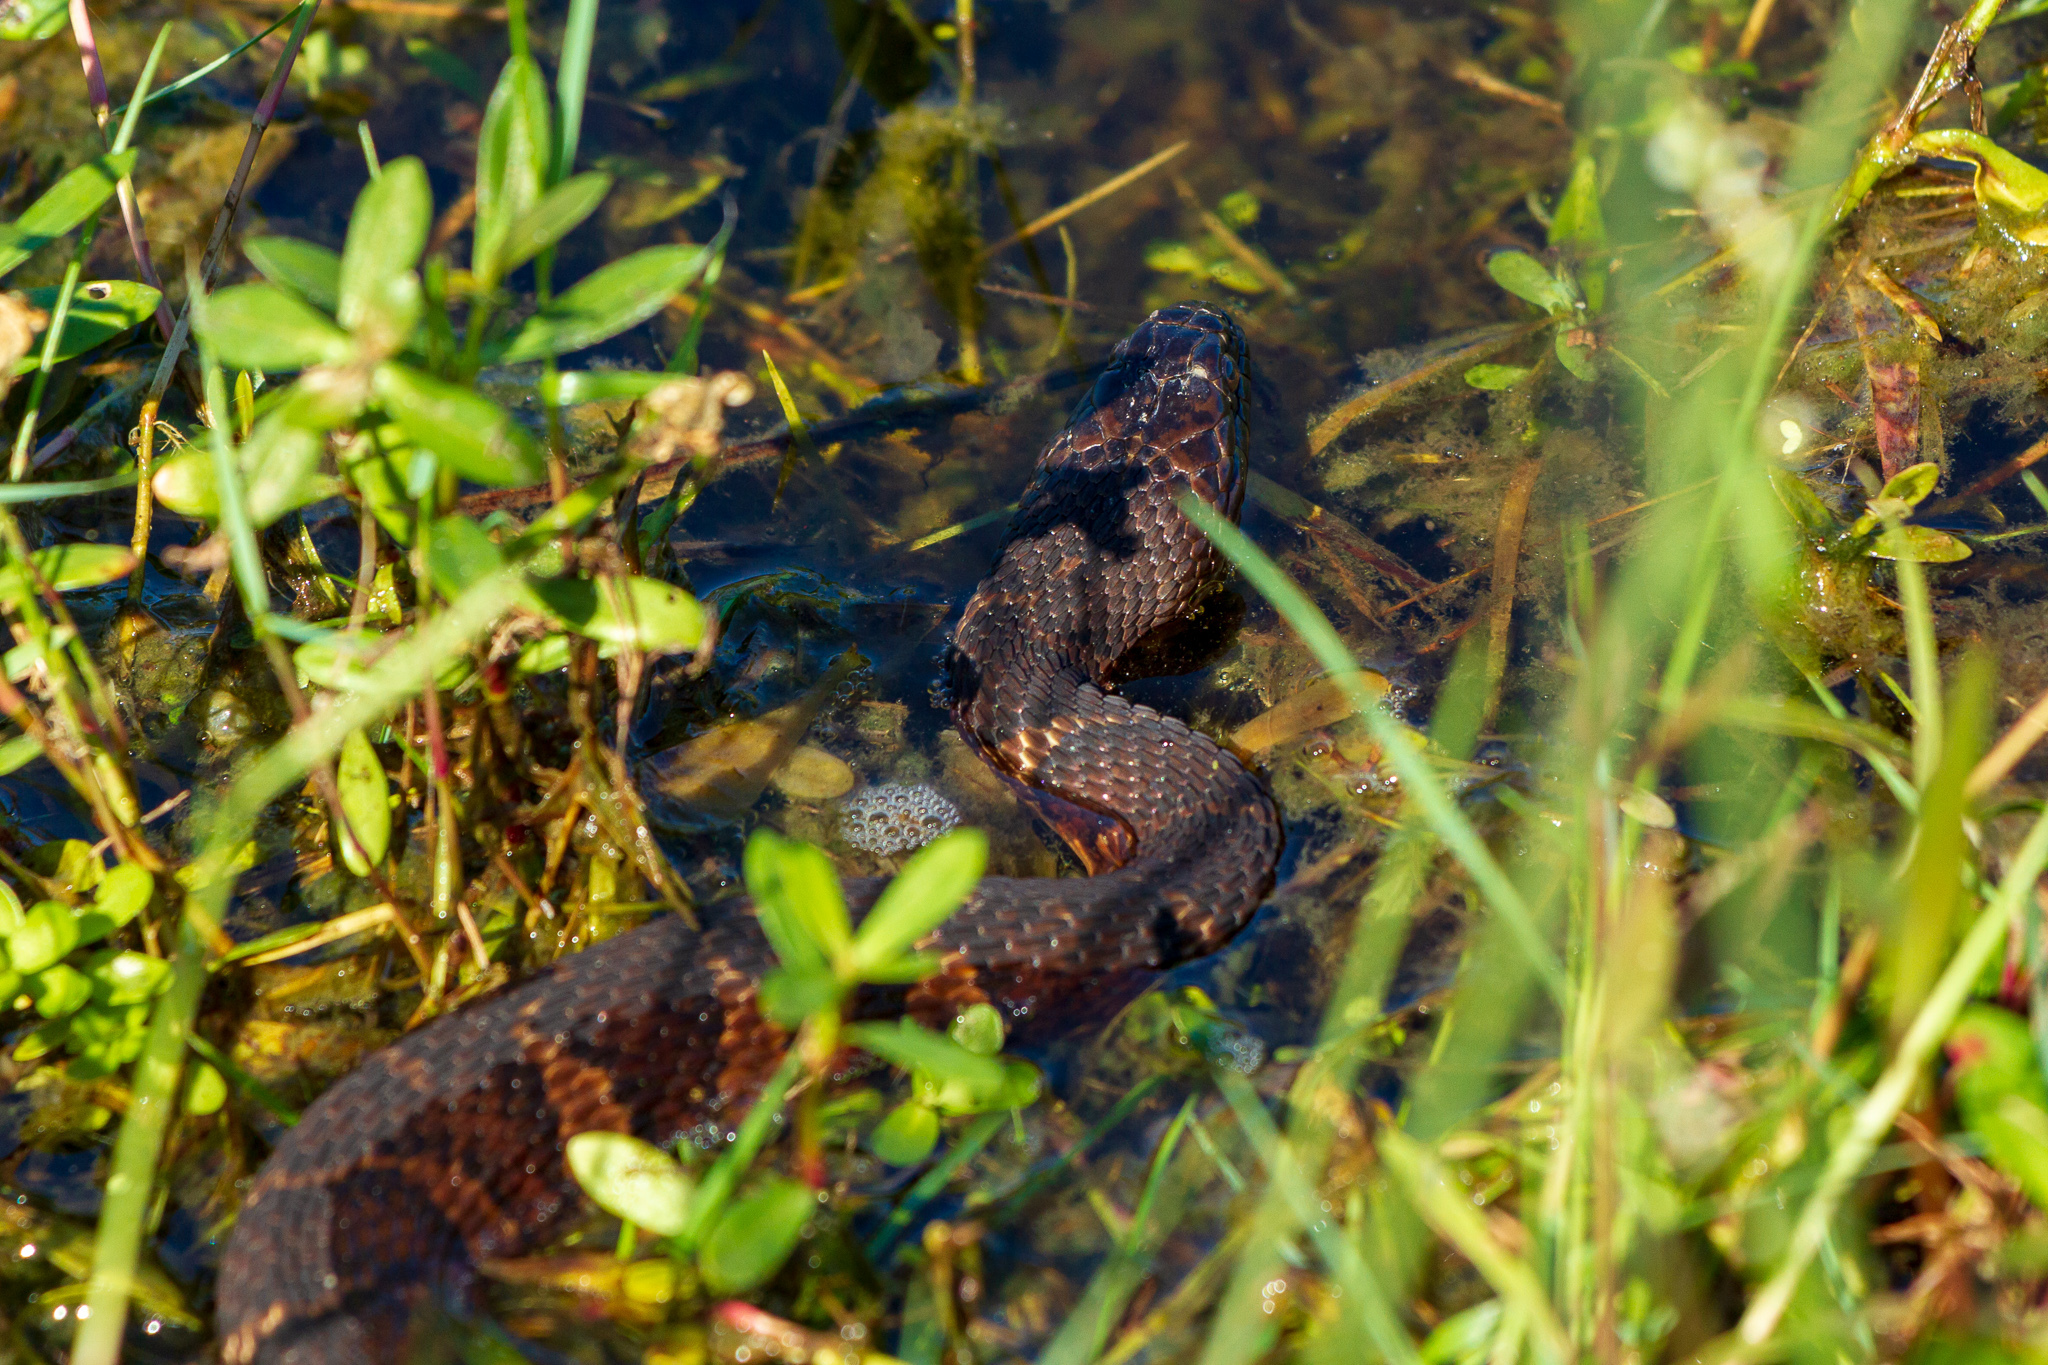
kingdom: Animalia
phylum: Chordata
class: Squamata
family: Colubridae
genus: Nerodia
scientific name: Nerodia sipedon
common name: Northern water snake
